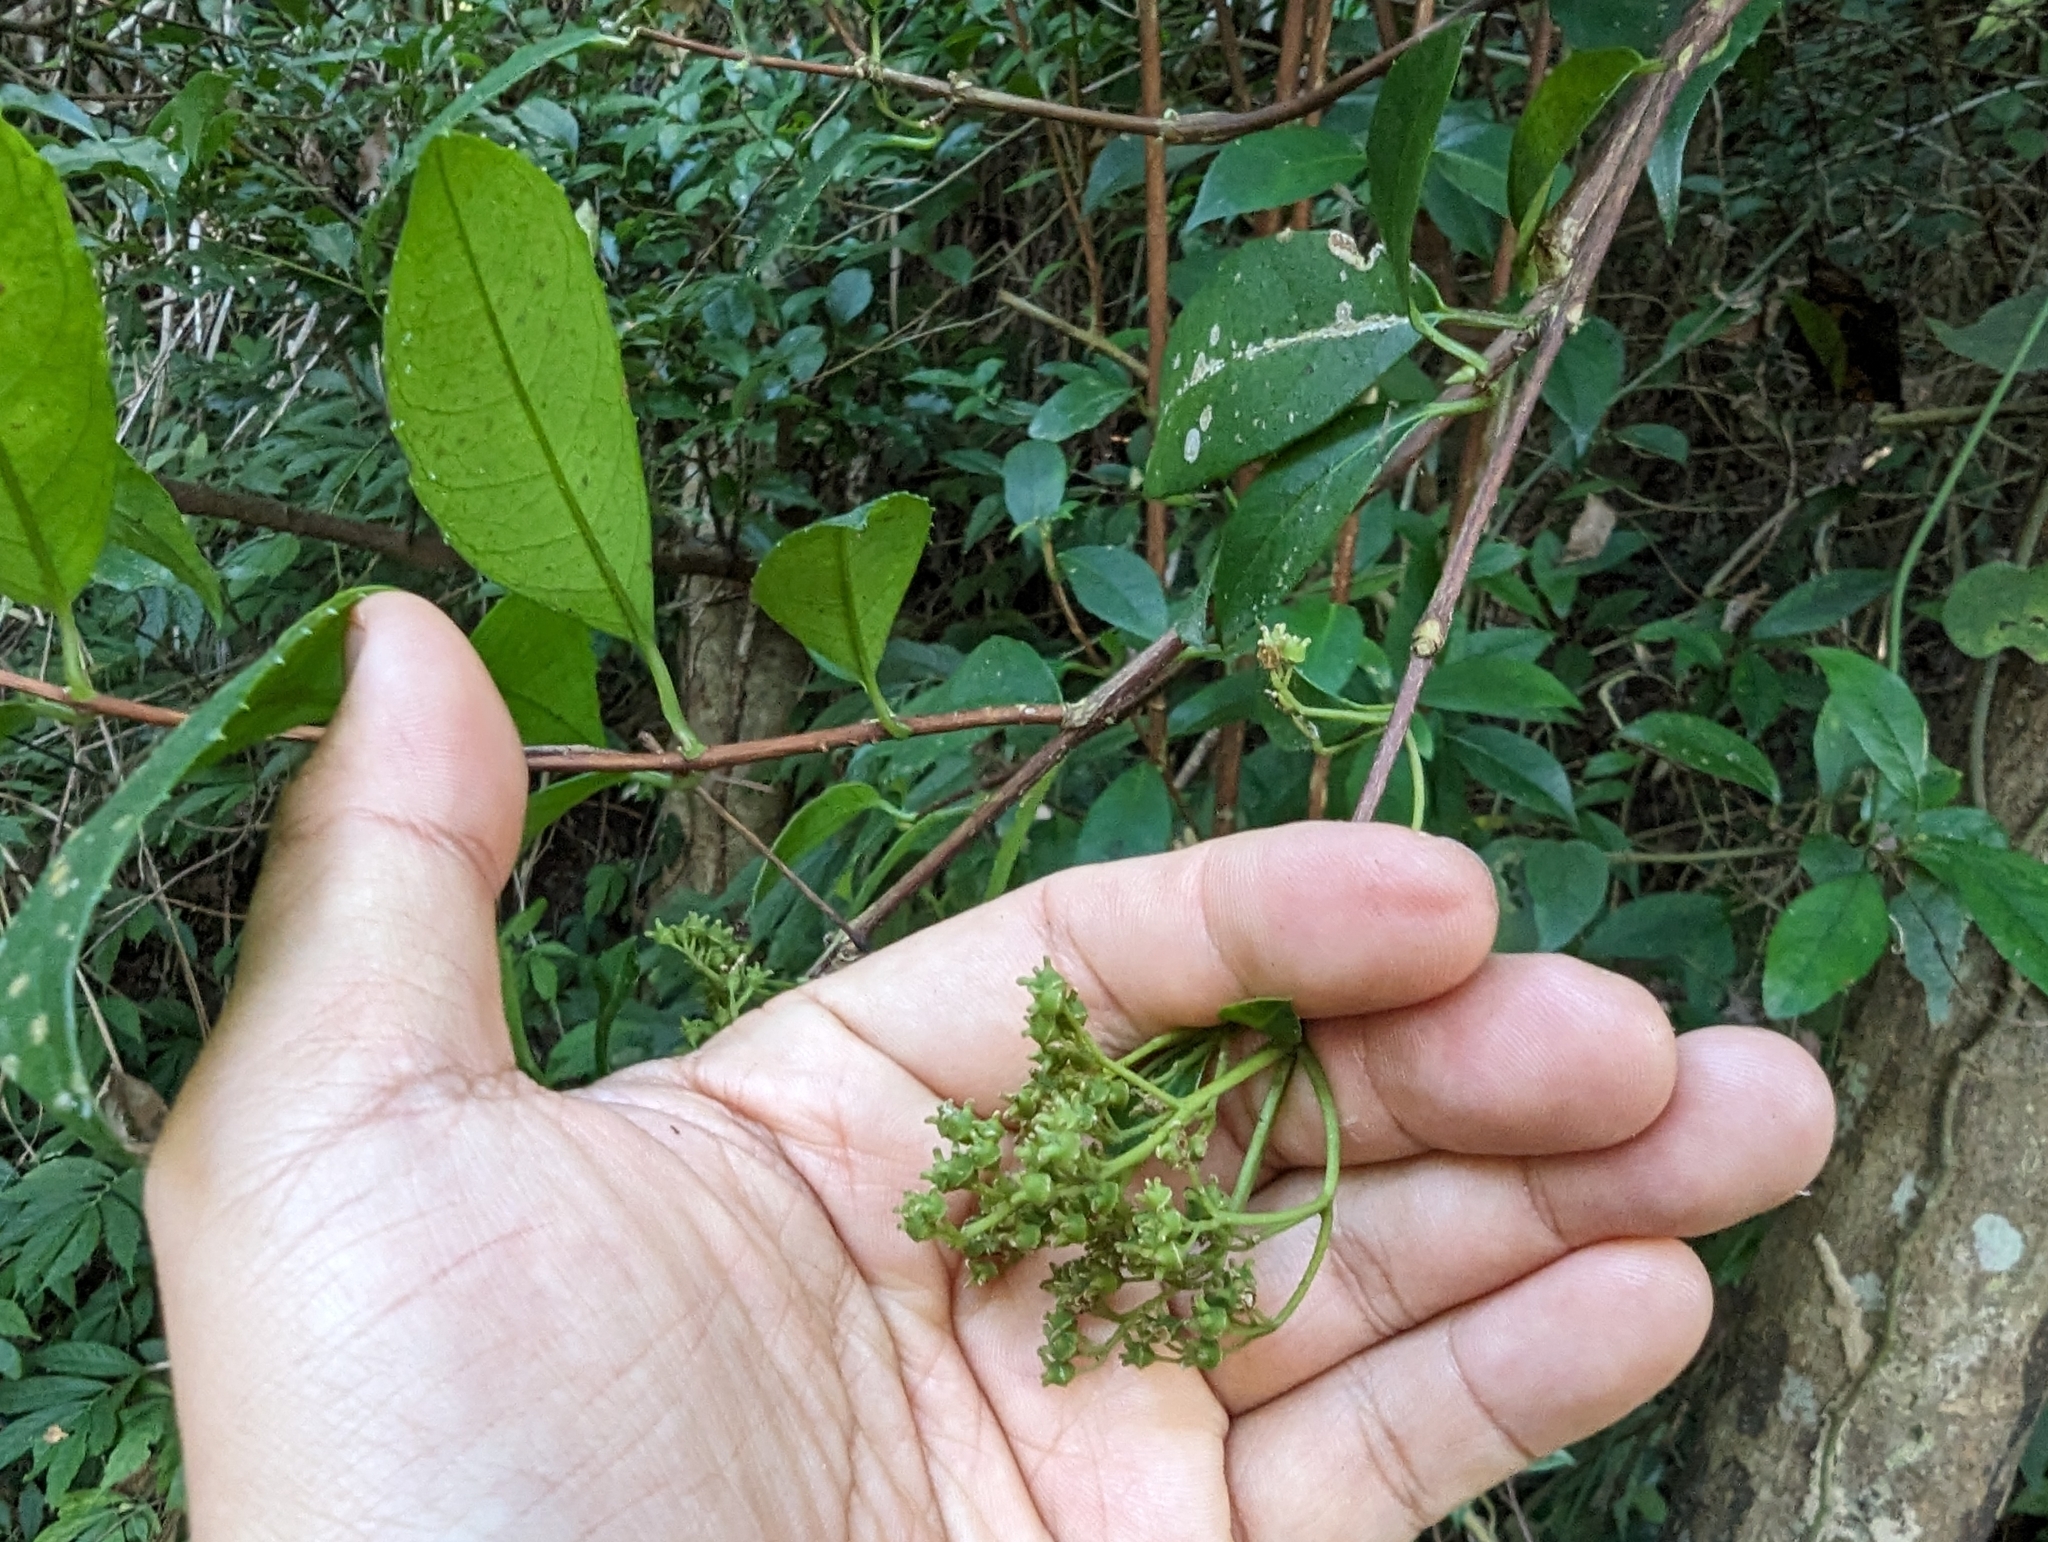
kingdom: Plantae
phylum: Tracheophyta
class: Magnoliopsida
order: Cornales
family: Hydrangeaceae
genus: Hydrangea
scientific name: Hydrangea chinensis
